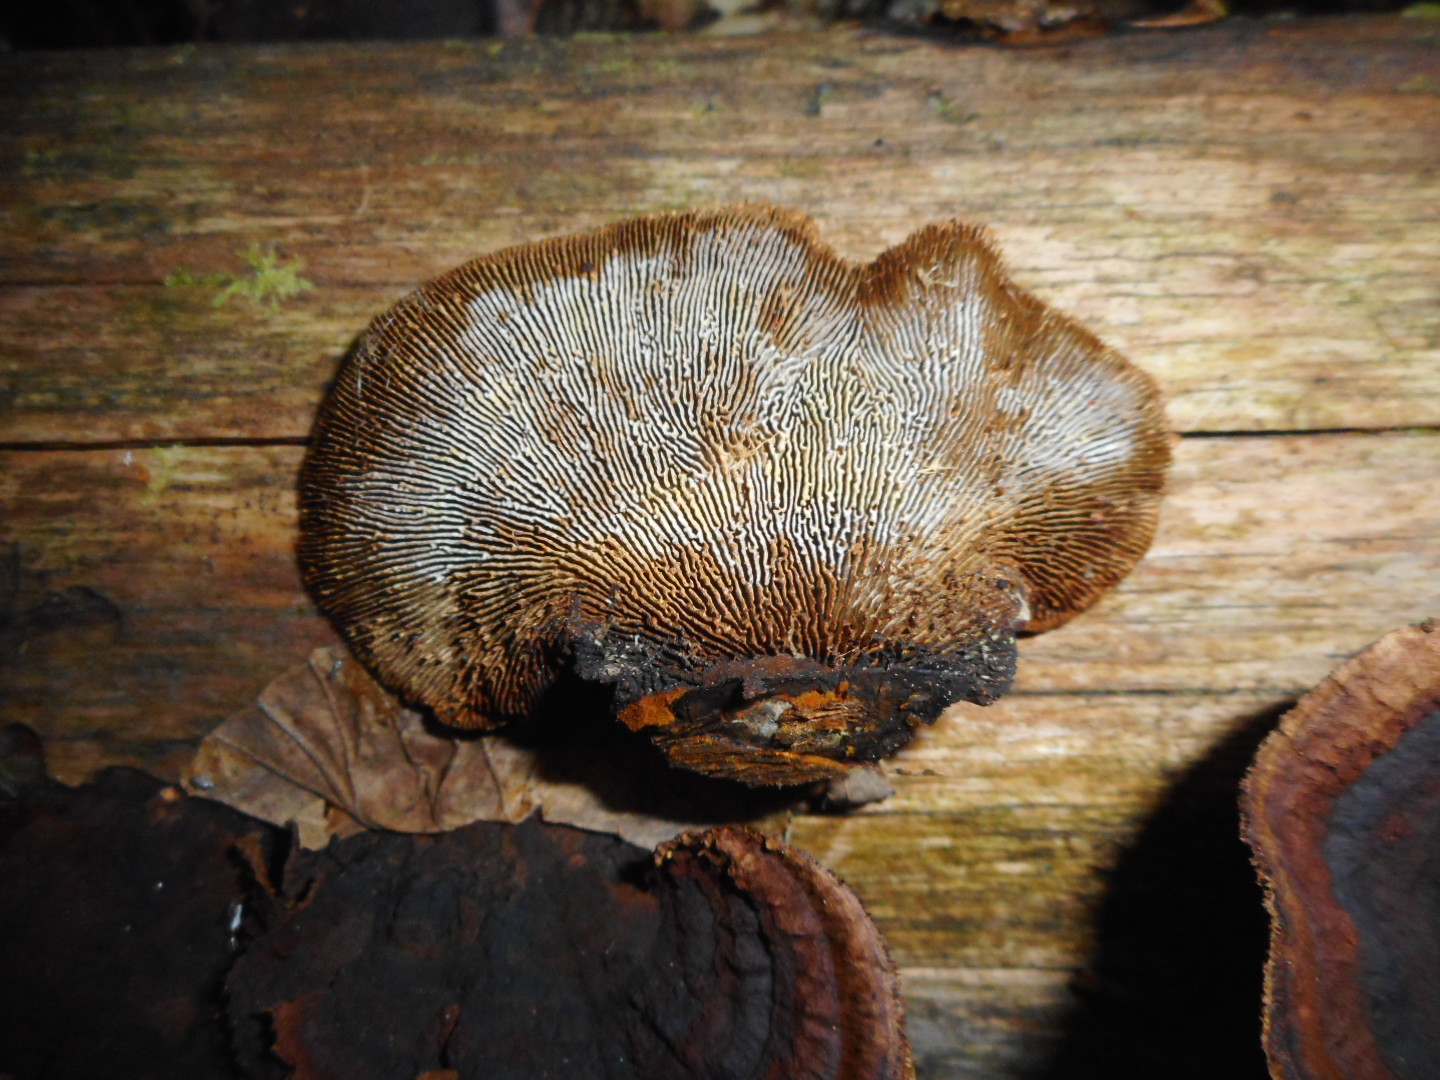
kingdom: Fungi
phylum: Basidiomycota
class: Agaricomycetes
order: Gloeophyllales
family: Gloeophyllaceae
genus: Gloeophyllum
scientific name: Gloeophyllum sepiarium
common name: Conifer mazegill
